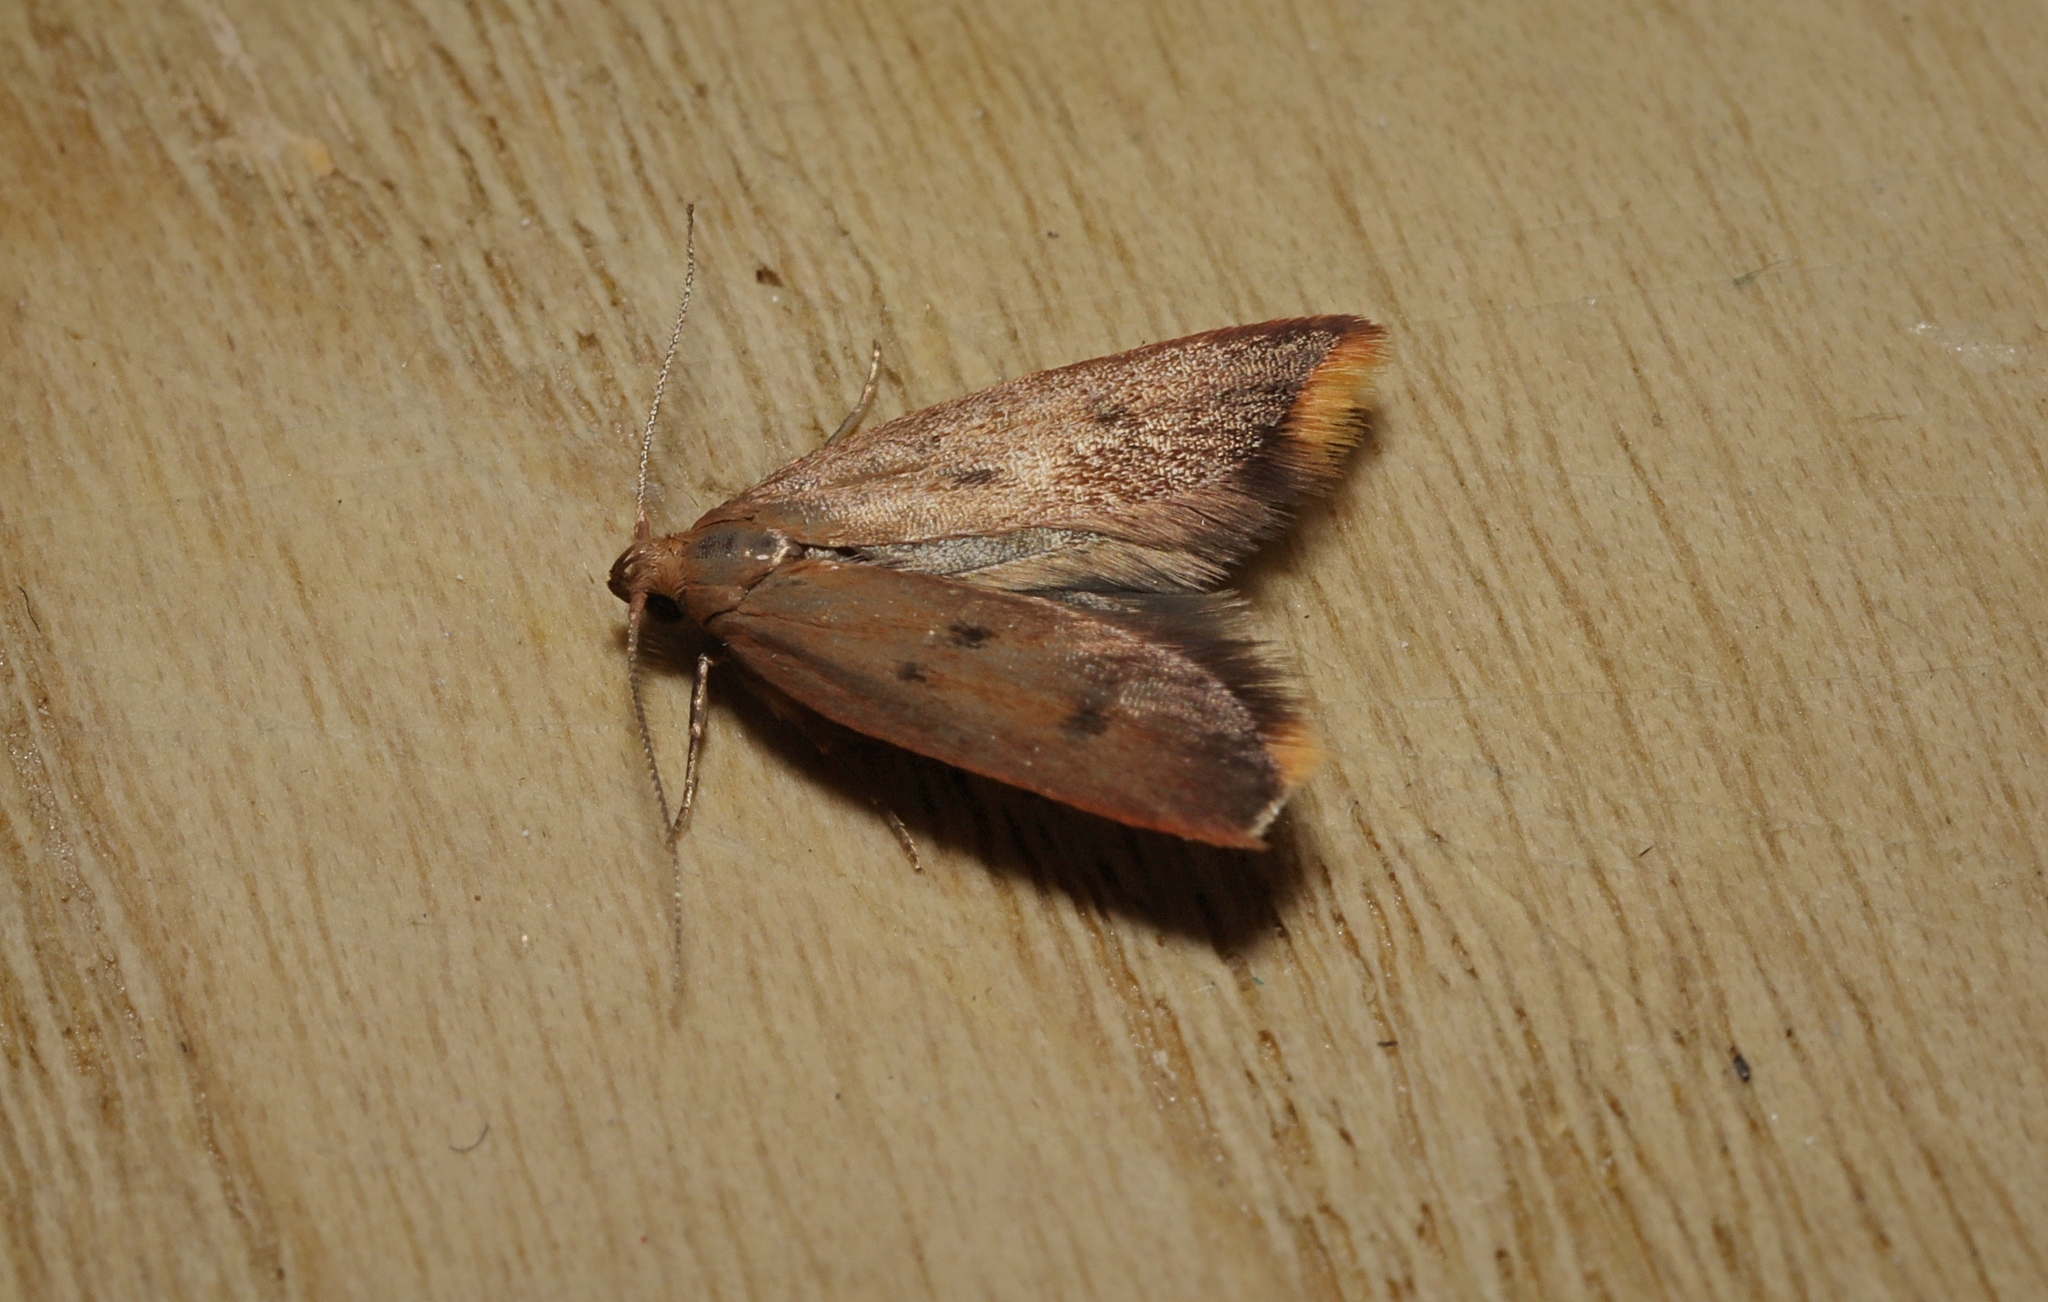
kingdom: Animalia
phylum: Arthropoda
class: Insecta
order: Lepidoptera
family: Oecophoridae
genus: Tachystola
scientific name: Tachystola acroxantha
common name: Ruddy streak
